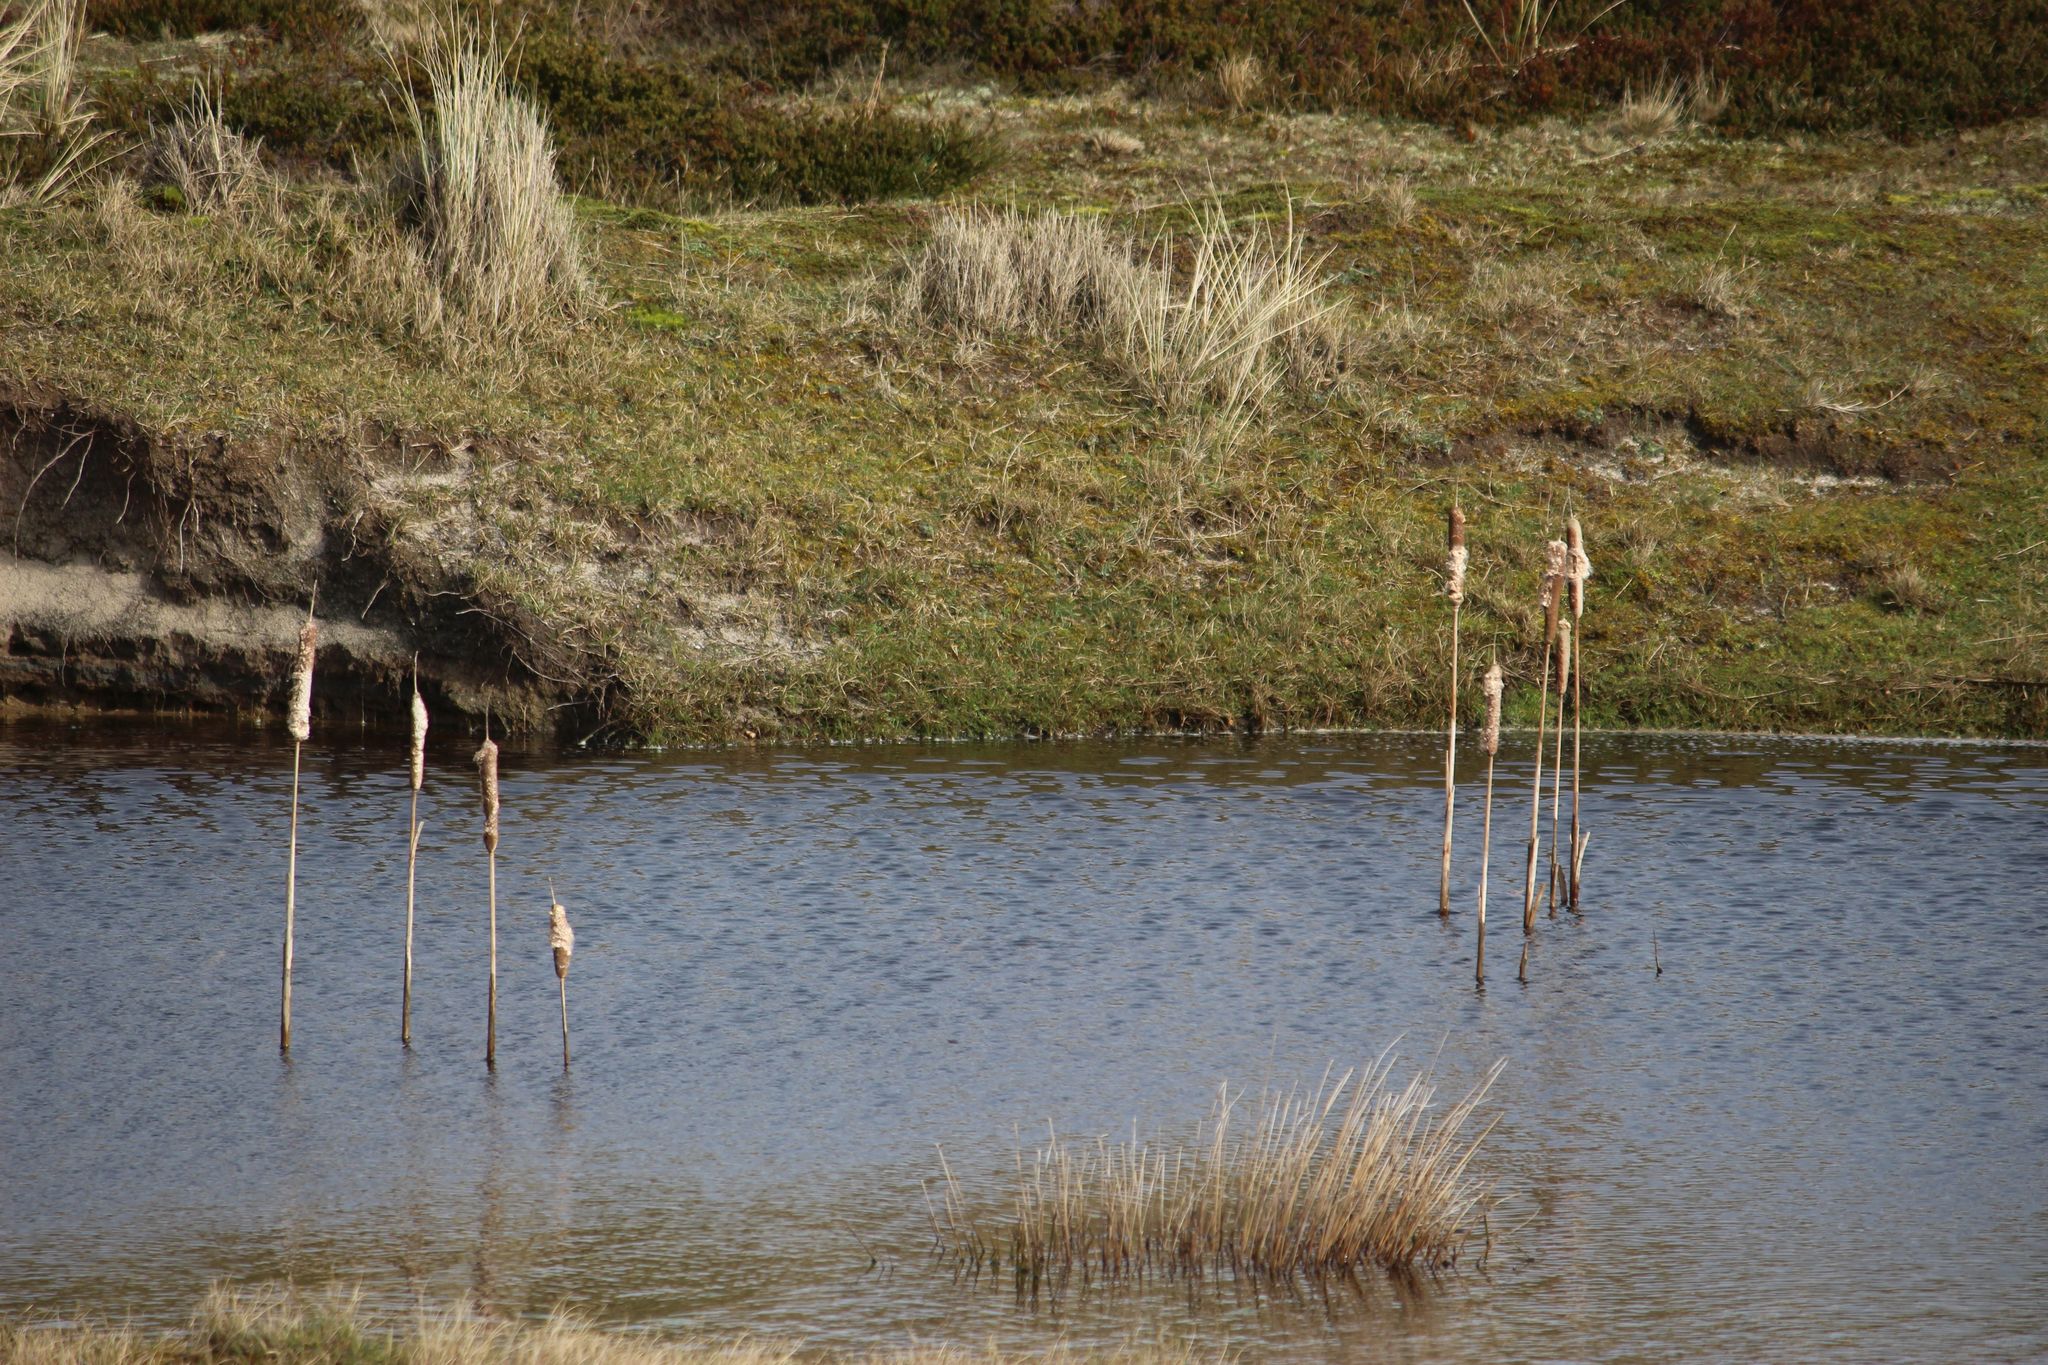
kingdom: Plantae
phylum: Tracheophyta
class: Liliopsida
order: Poales
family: Typhaceae
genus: Typha
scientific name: Typha latifolia
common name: Broadleaf cattail
